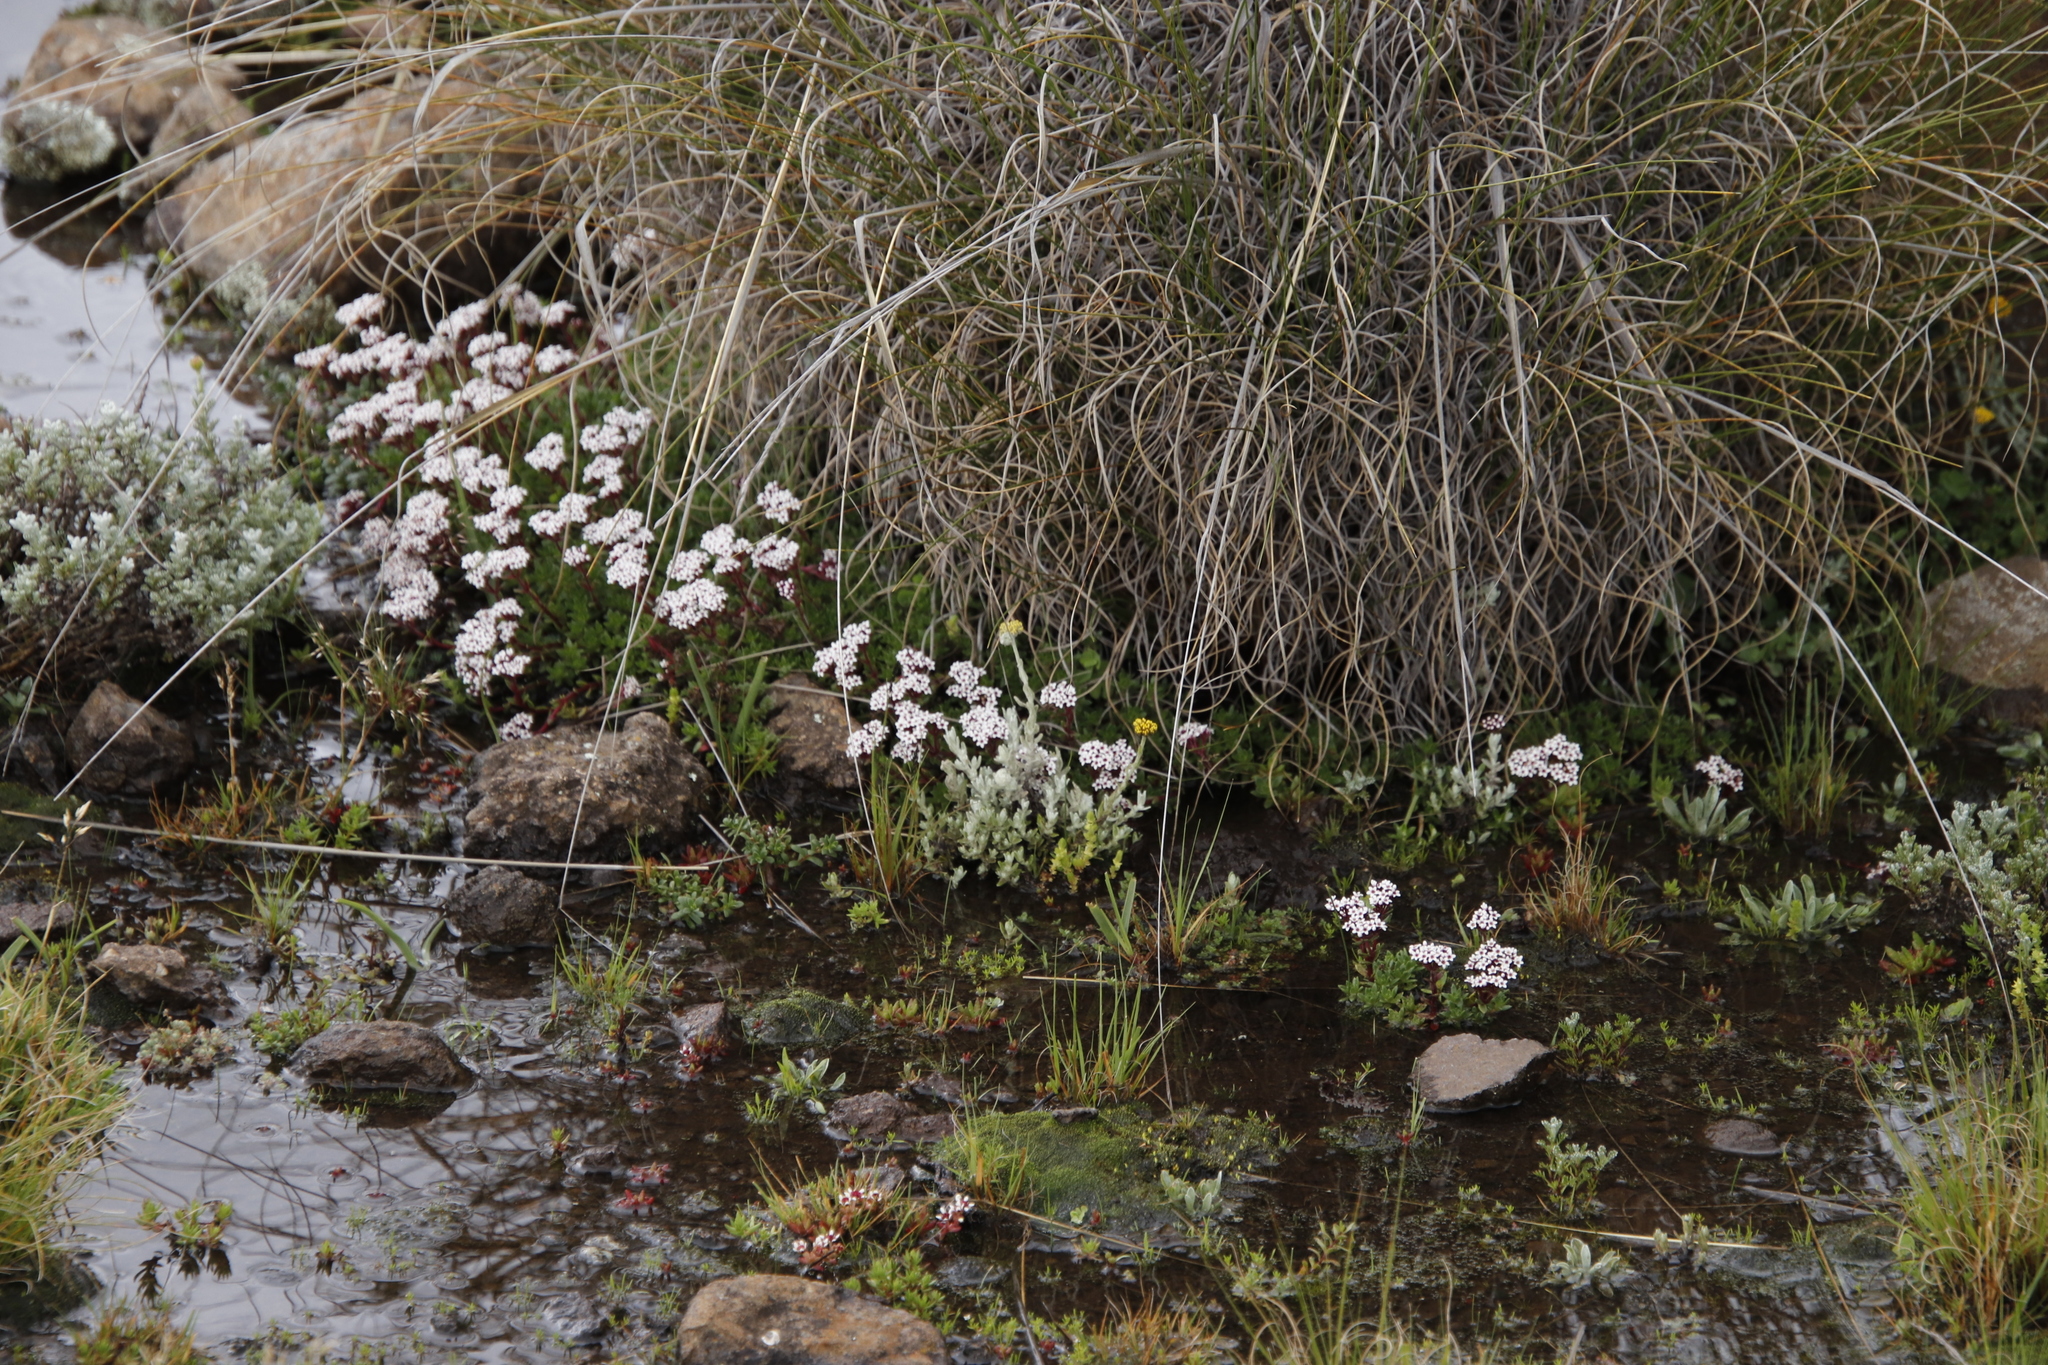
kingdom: Plantae
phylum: Tracheophyta
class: Magnoliopsida
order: Saxifragales
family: Crassulaceae
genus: Crassula
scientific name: Crassula setulosa
